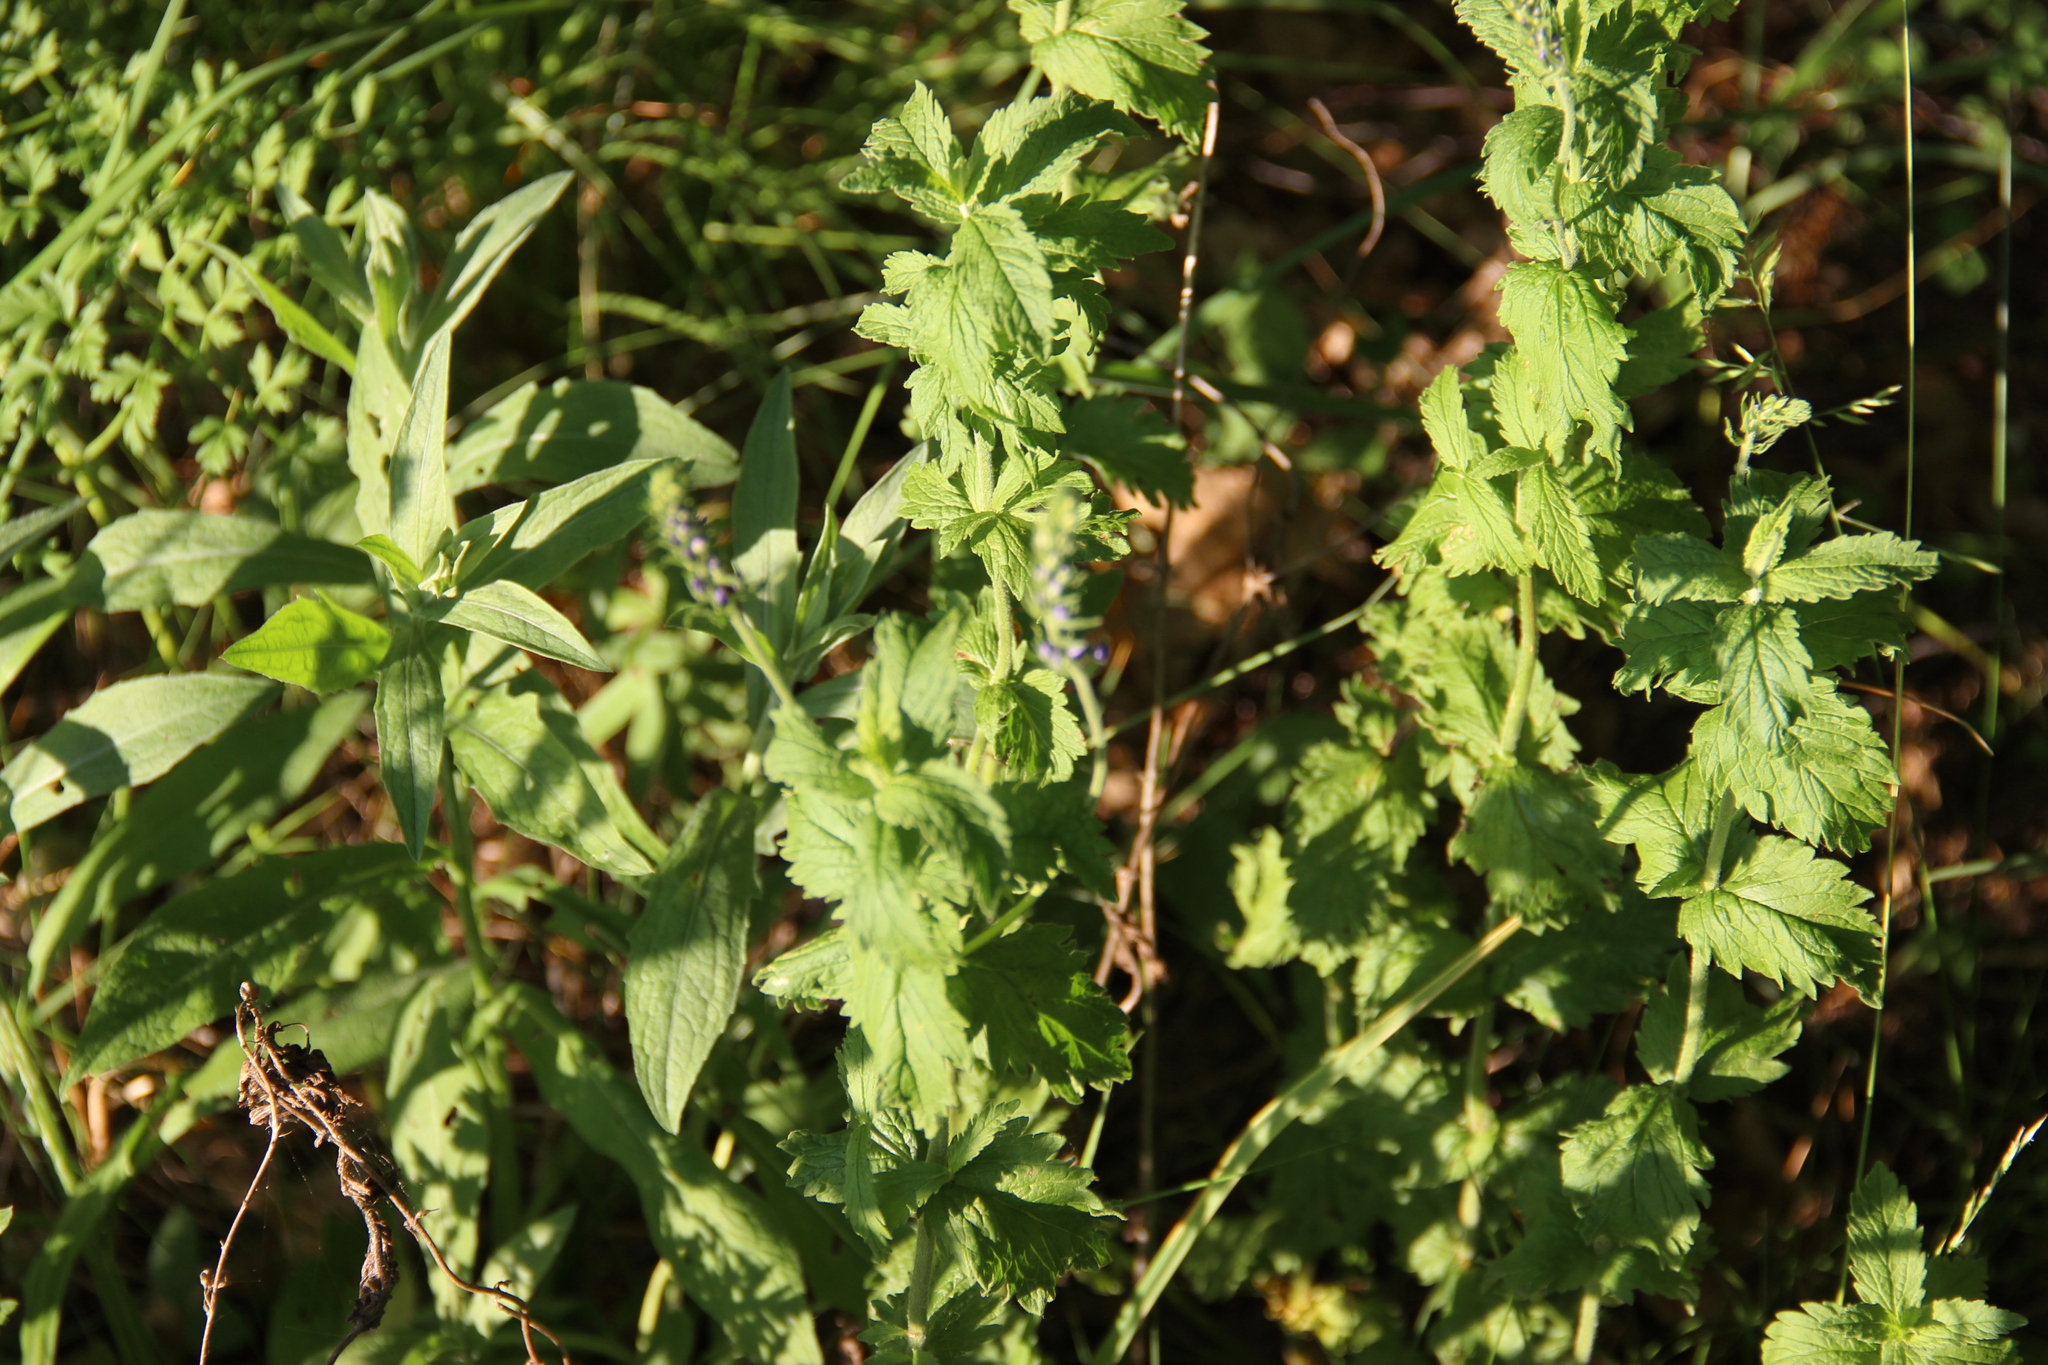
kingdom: Plantae
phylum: Tracheophyta
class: Magnoliopsida
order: Lamiales
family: Plantaginaceae
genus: Veronica
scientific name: Veronica teucrium
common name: Large speedwell
